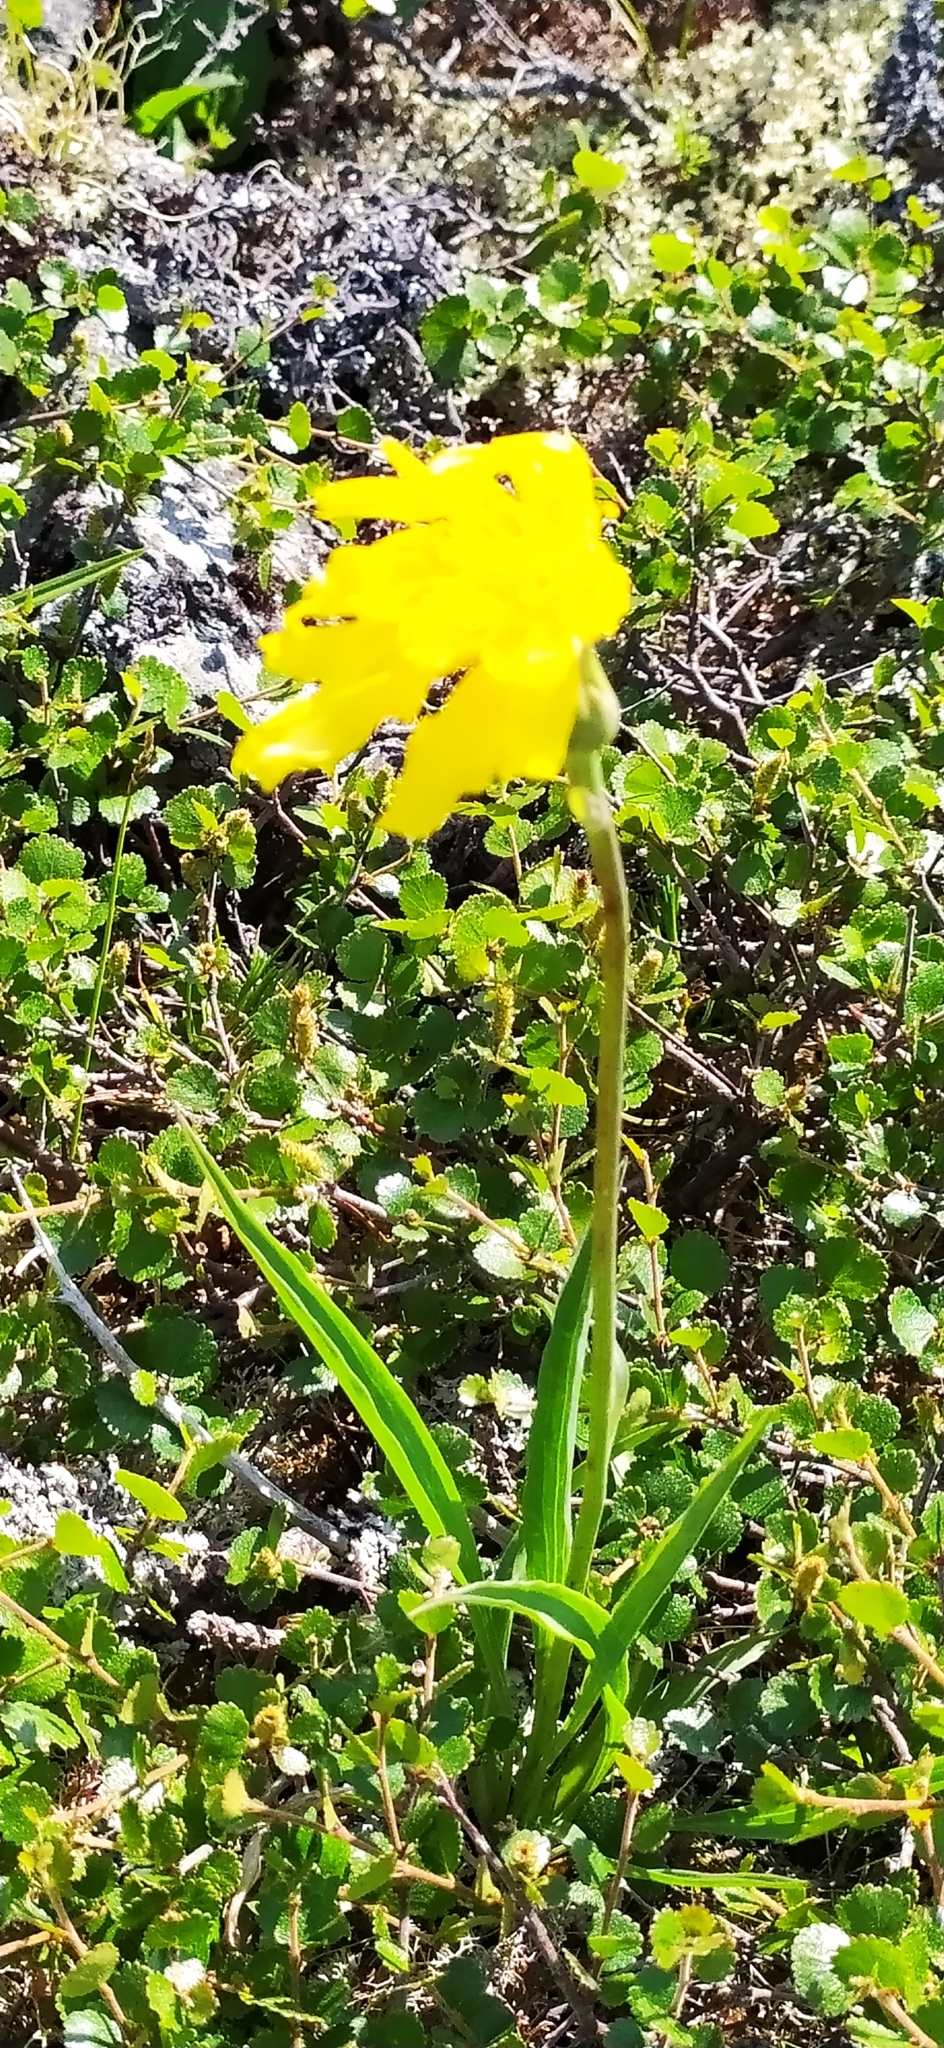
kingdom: Plantae
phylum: Tracheophyta
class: Magnoliopsida
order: Asterales
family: Asteraceae
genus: Scorzonera
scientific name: Scorzonera glabra
